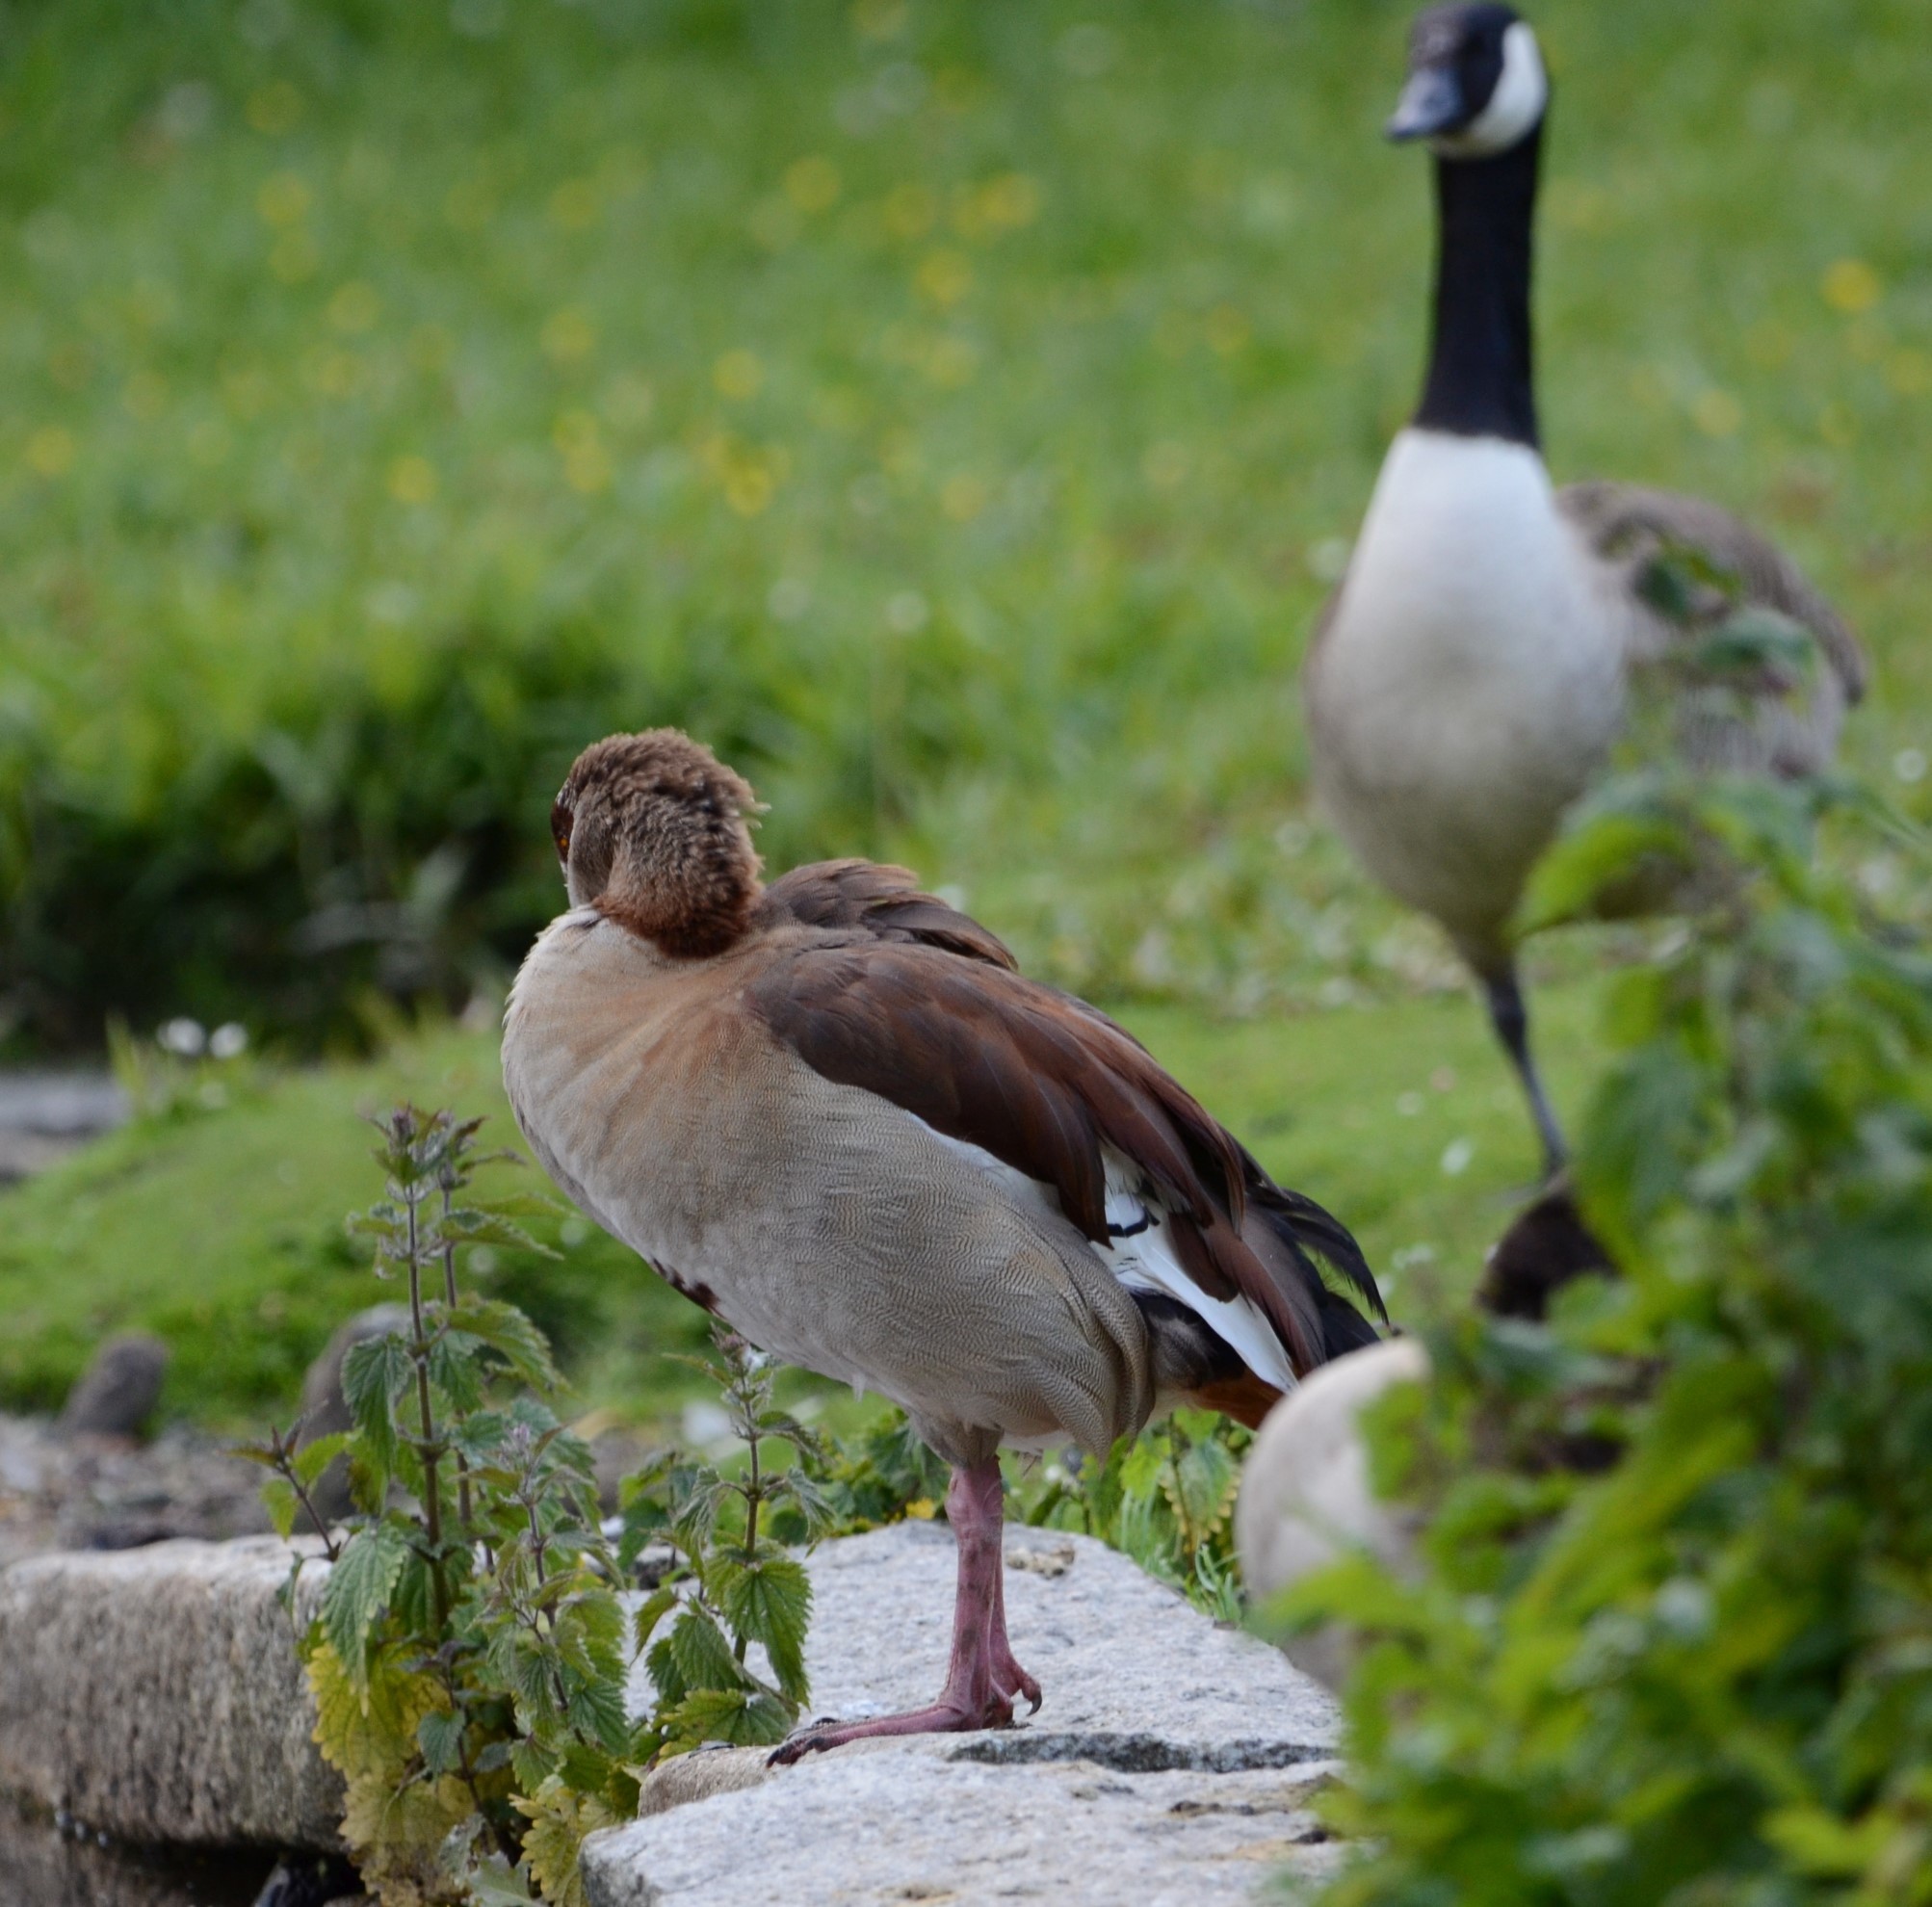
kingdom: Animalia
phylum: Chordata
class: Aves
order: Anseriformes
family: Anatidae
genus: Alopochen
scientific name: Alopochen aegyptiaca
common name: Egyptian goose
